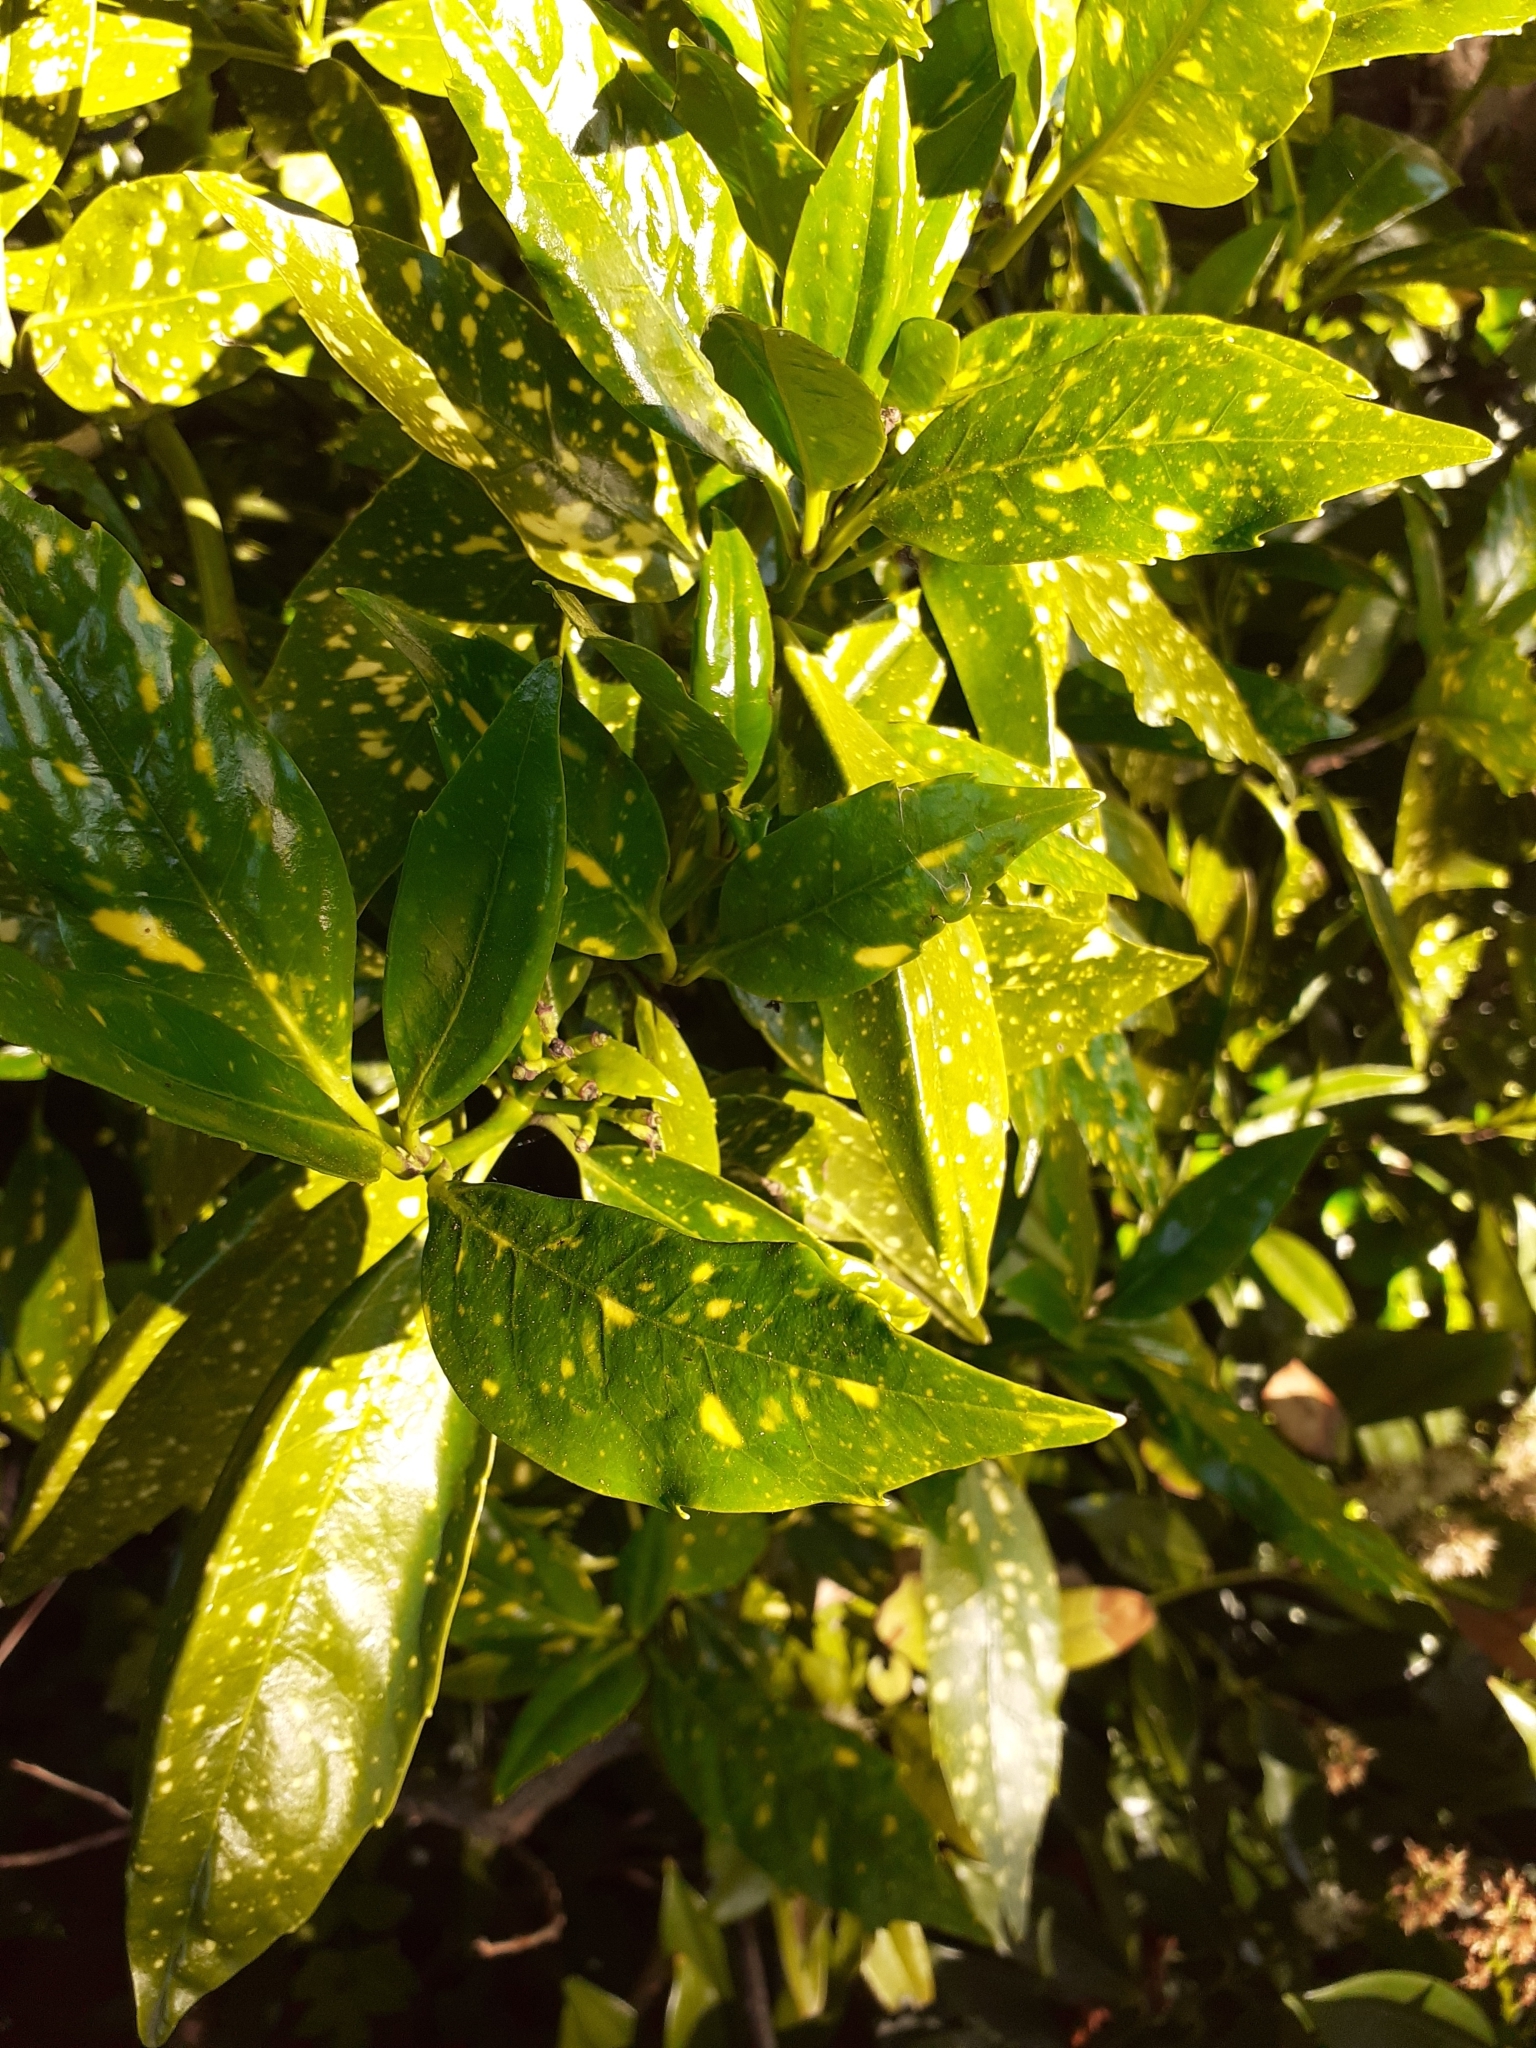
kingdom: Plantae
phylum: Tracheophyta
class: Magnoliopsida
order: Garryales
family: Garryaceae
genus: Aucuba
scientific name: Aucuba japonica
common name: Spotted-laurel
